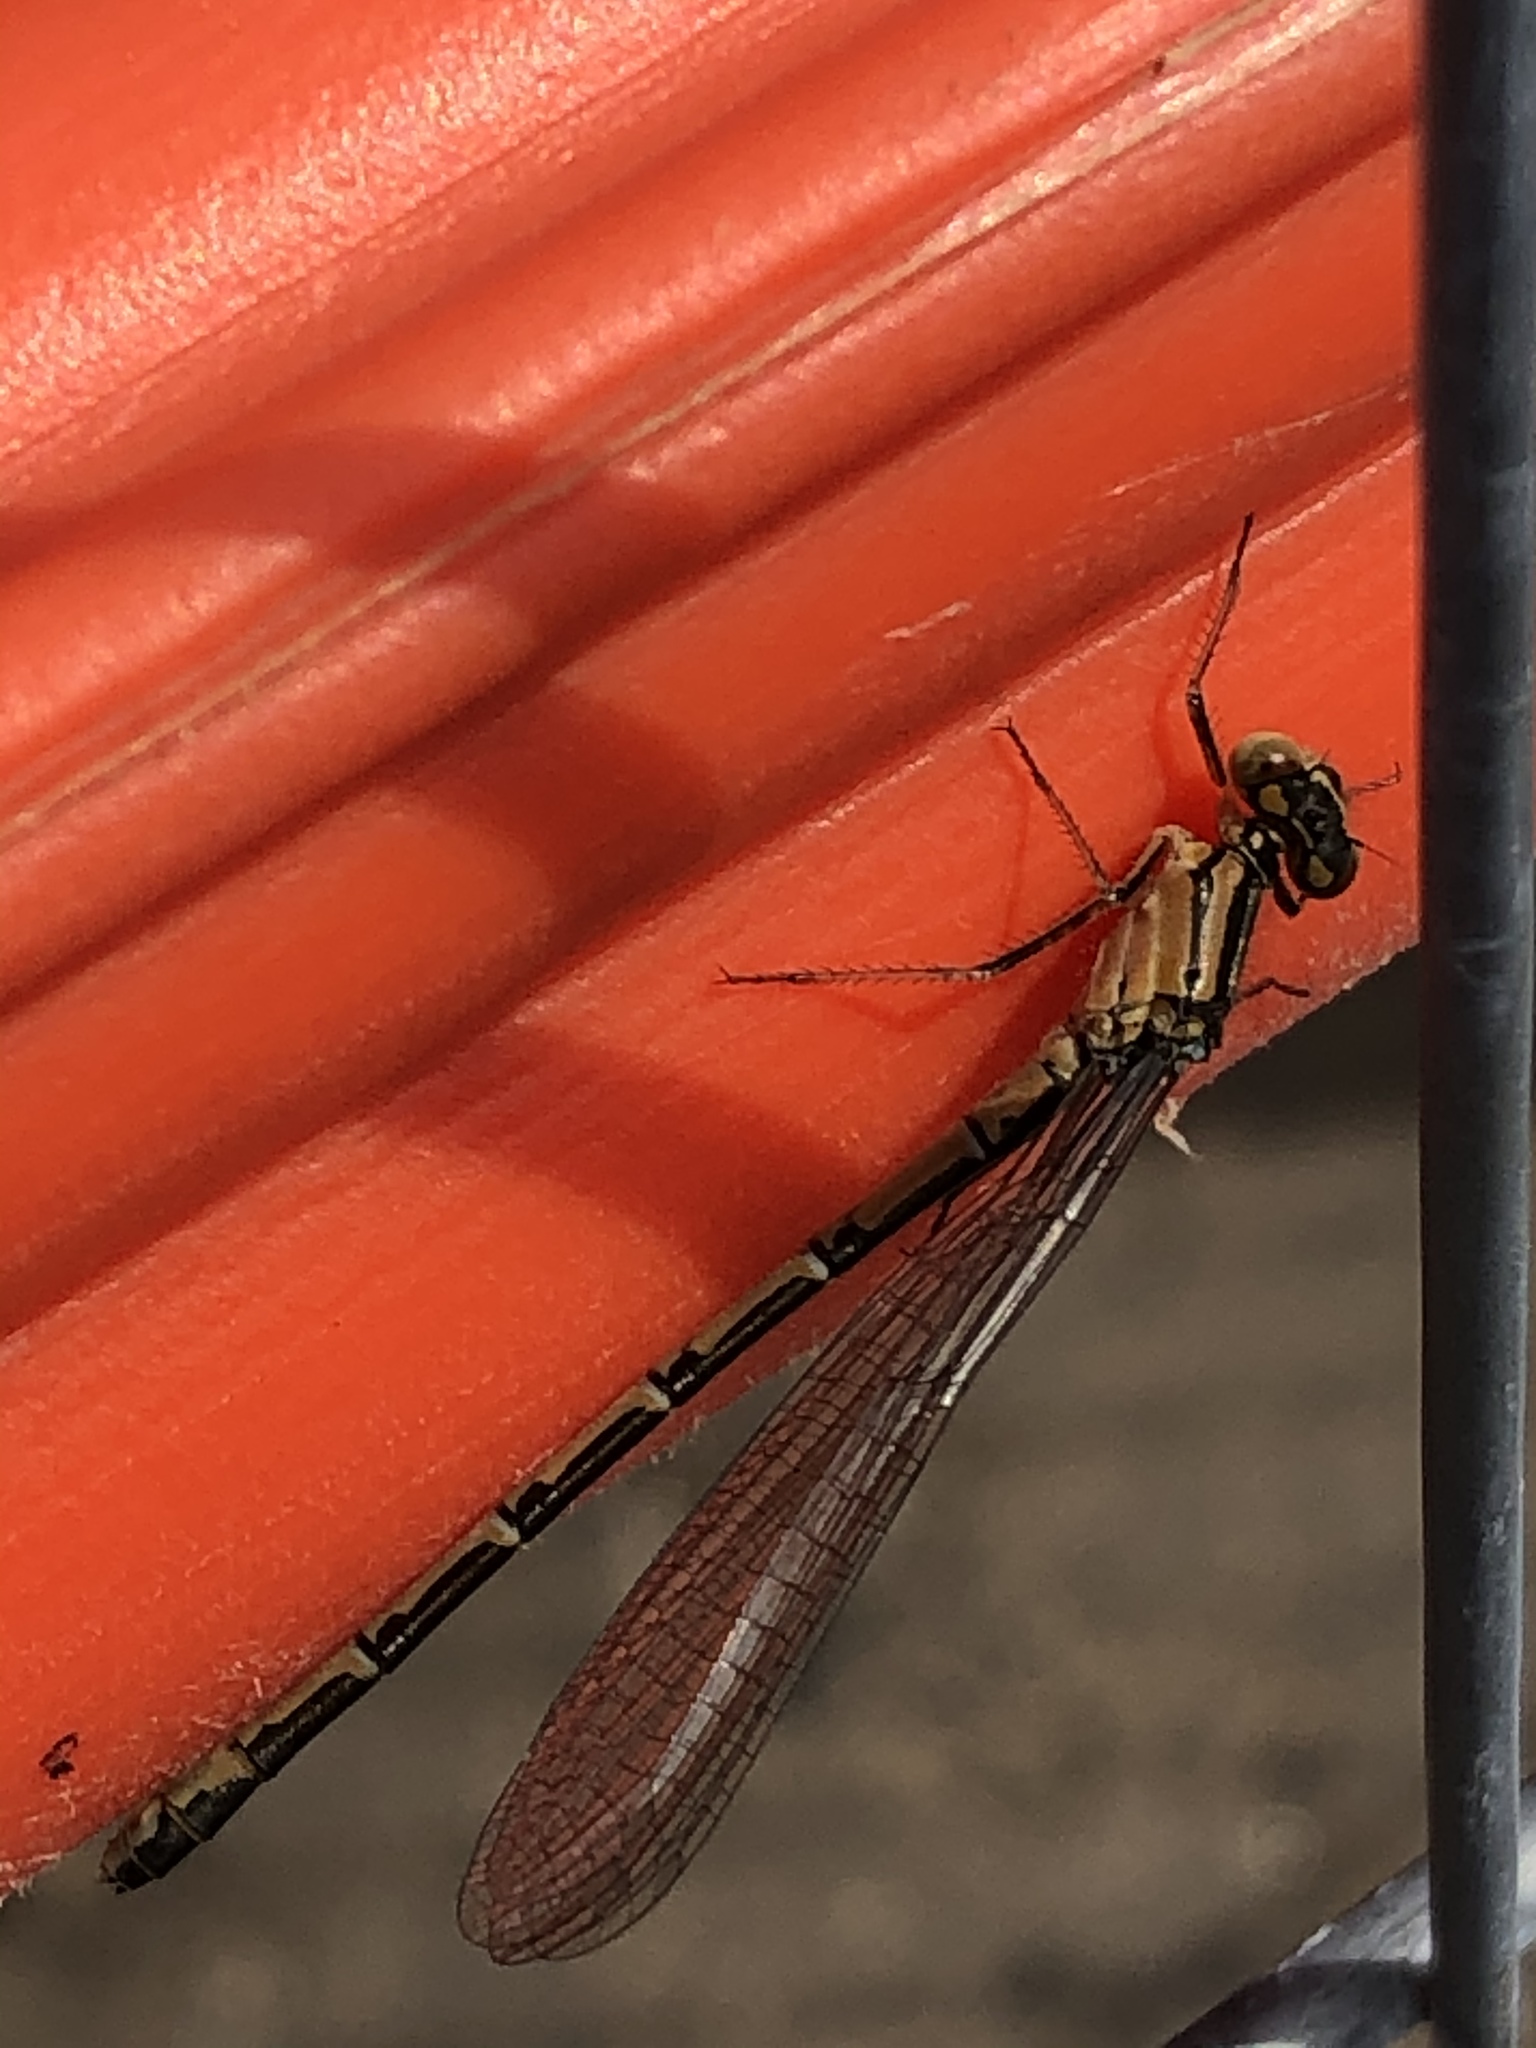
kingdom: Animalia
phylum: Arthropoda
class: Insecta
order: Odonata
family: Coenagrionidae
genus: Enallagma
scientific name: Enallagma cyathigerum
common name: Common blue damselfly
